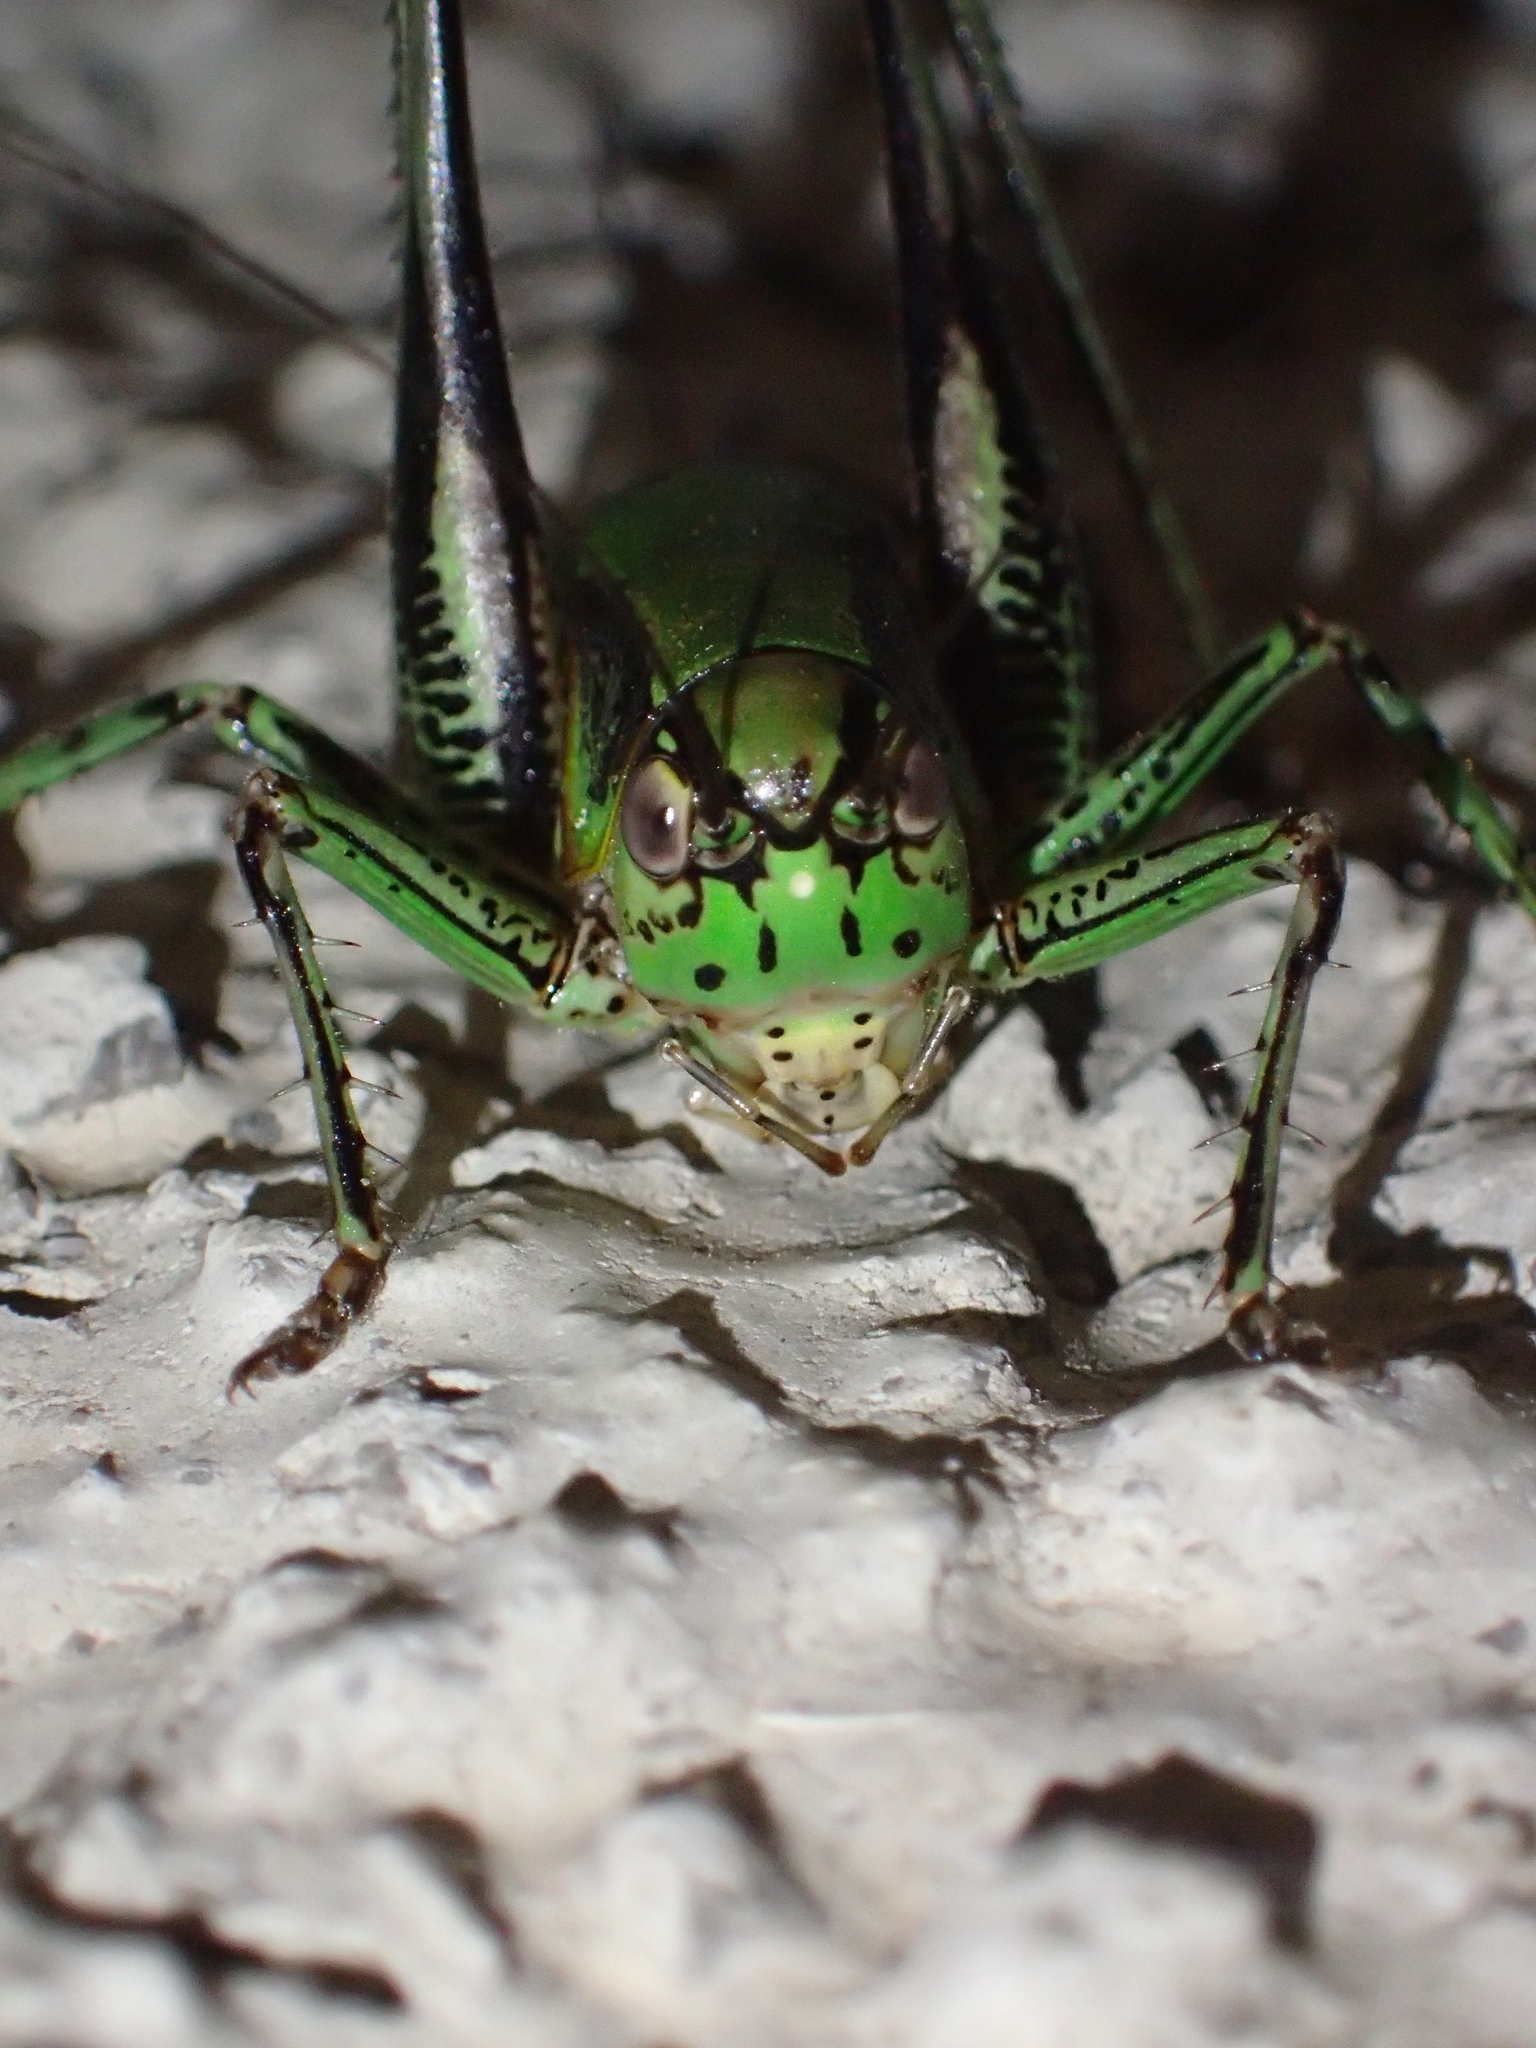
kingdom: Animalia
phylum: Arthropoda
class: Insecta
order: Orthoptera
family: Tettigoniidae
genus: Eupholidoptera
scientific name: Eupholidoptera schmidti
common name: Schmidt's marbled bush-cricket
